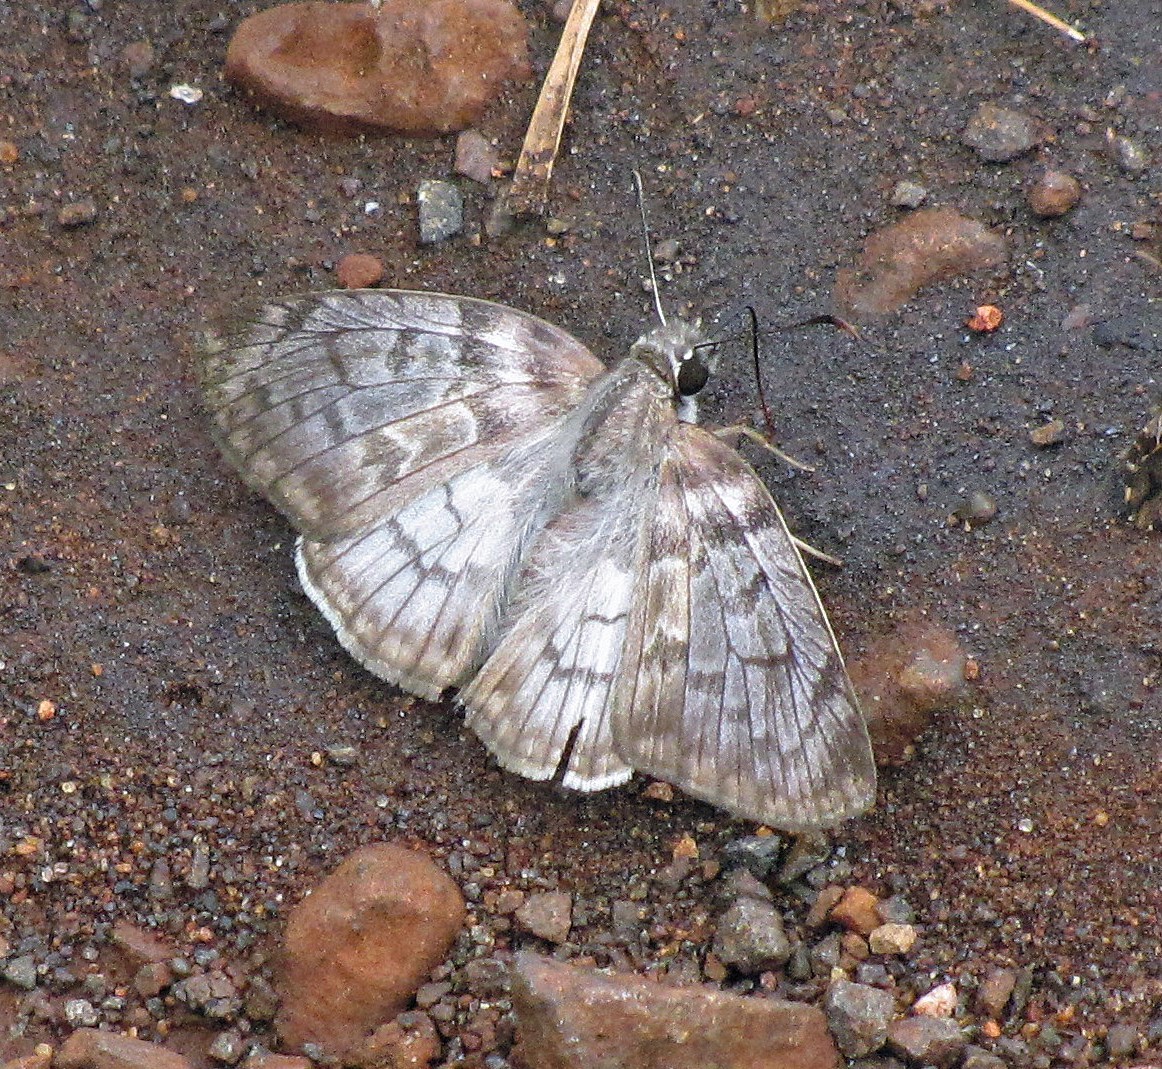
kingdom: Animalia
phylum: Arthropoda
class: Insecta
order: Lepidoptera
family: Hesperiidae
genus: Mylon
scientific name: Mylon pelopidas
